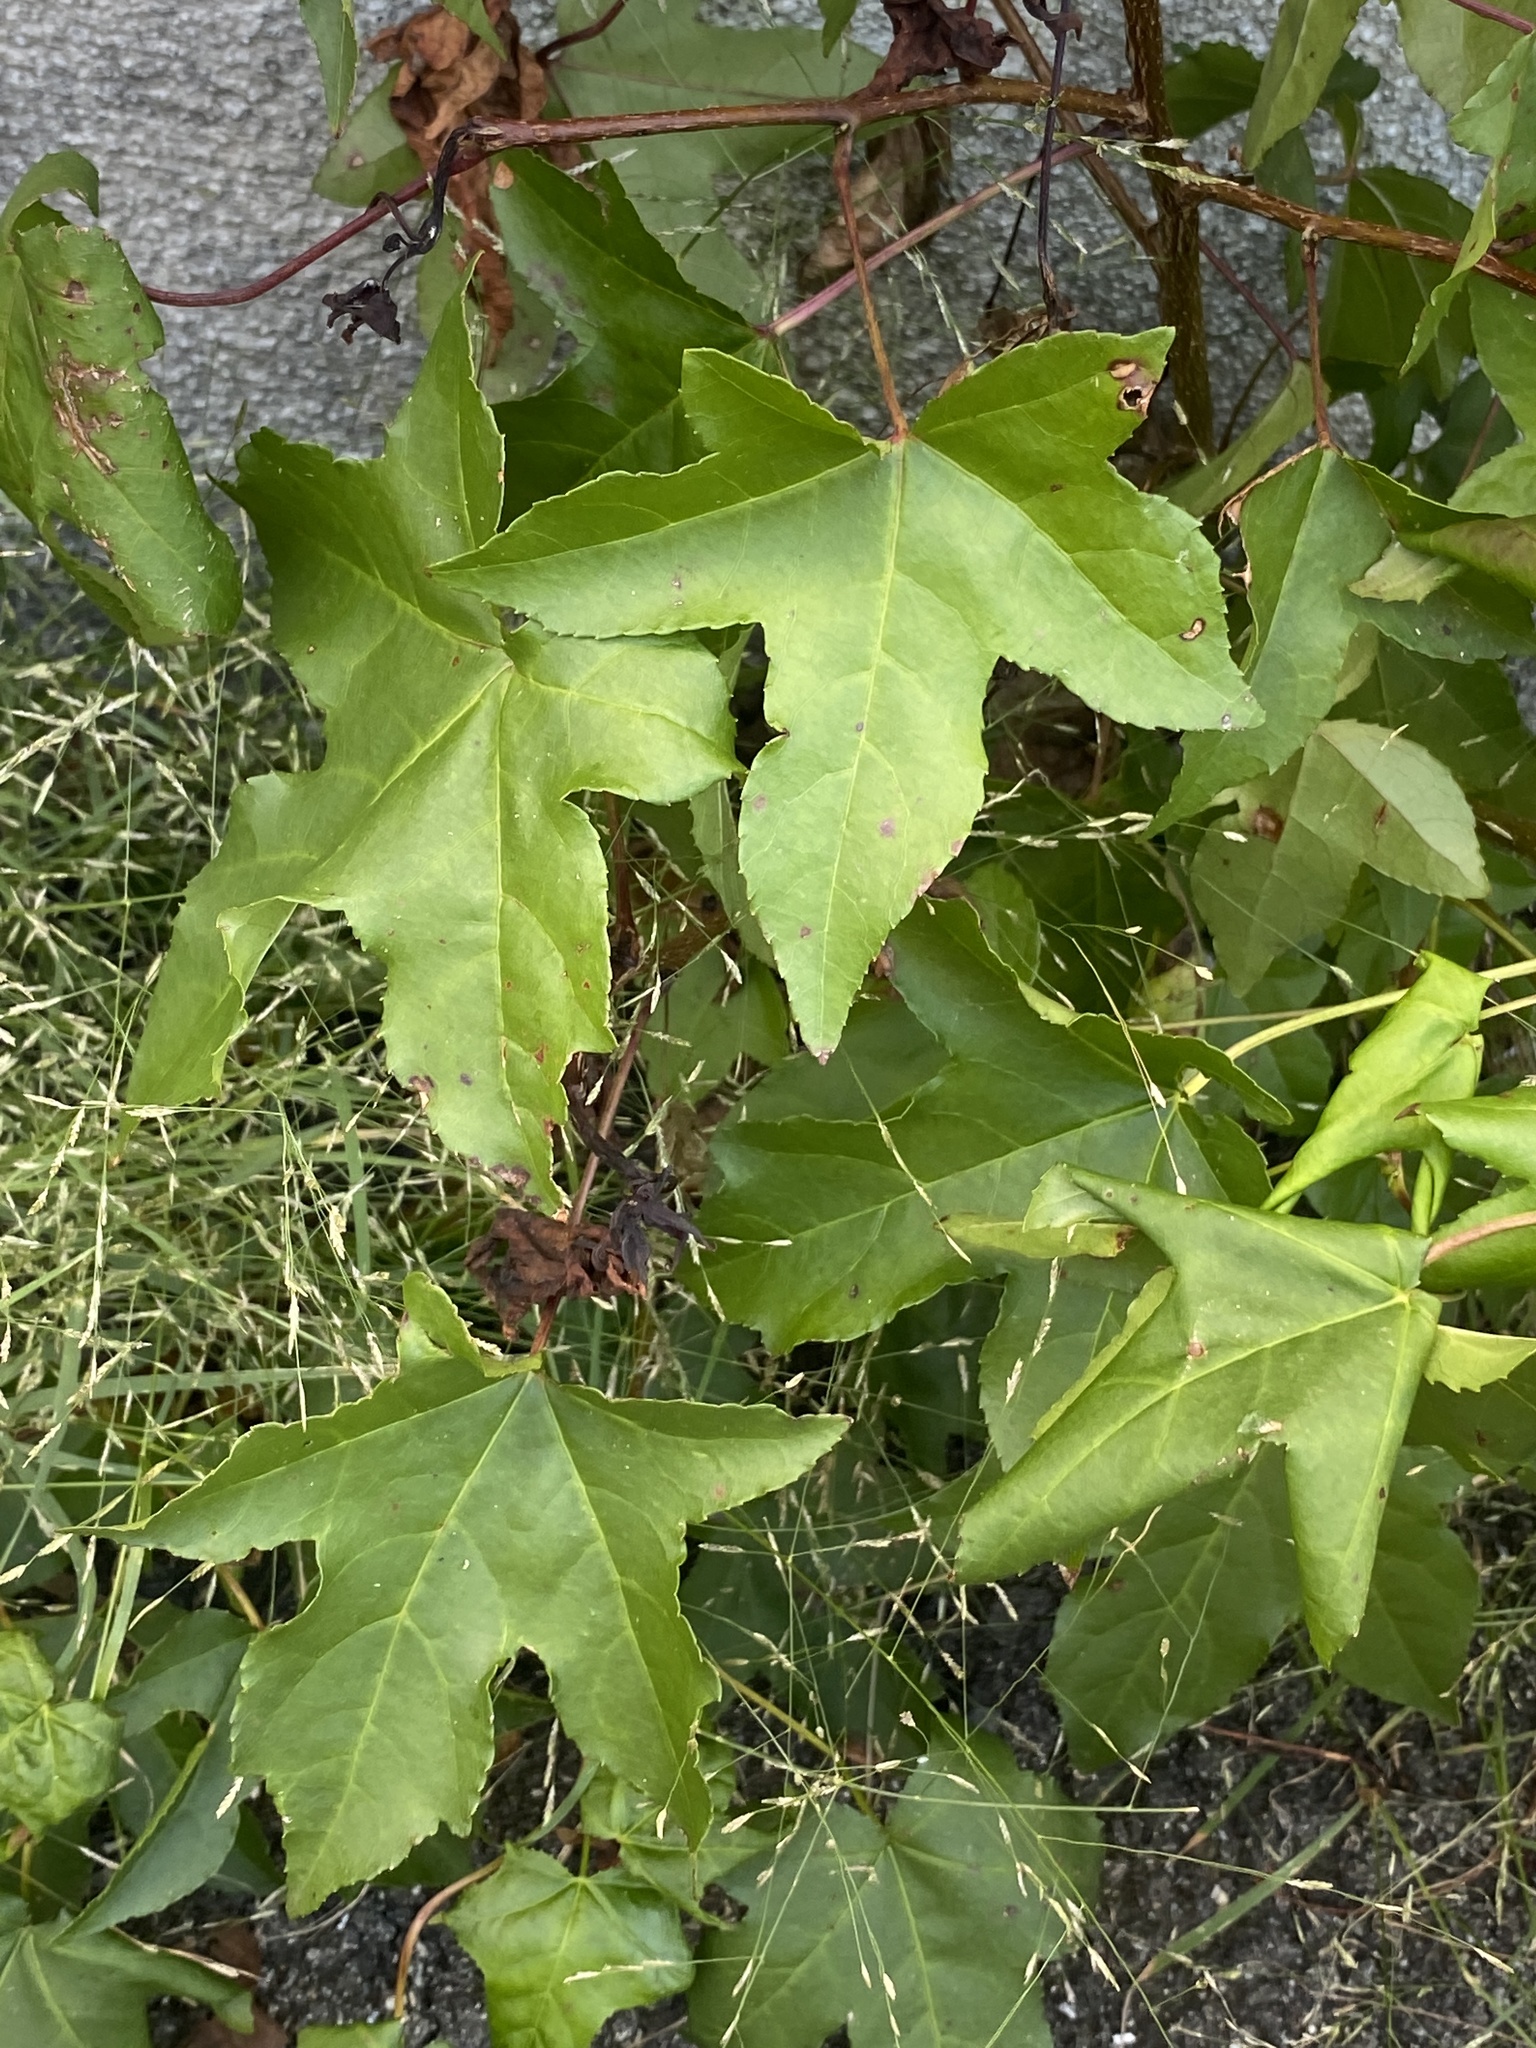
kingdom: Plantae
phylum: Tracheophyta
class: Magnoliopsida
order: Saxifragales
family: Altingiaceae
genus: Liquidambar
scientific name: Liquidambar styraciflua
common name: Sweet gum
